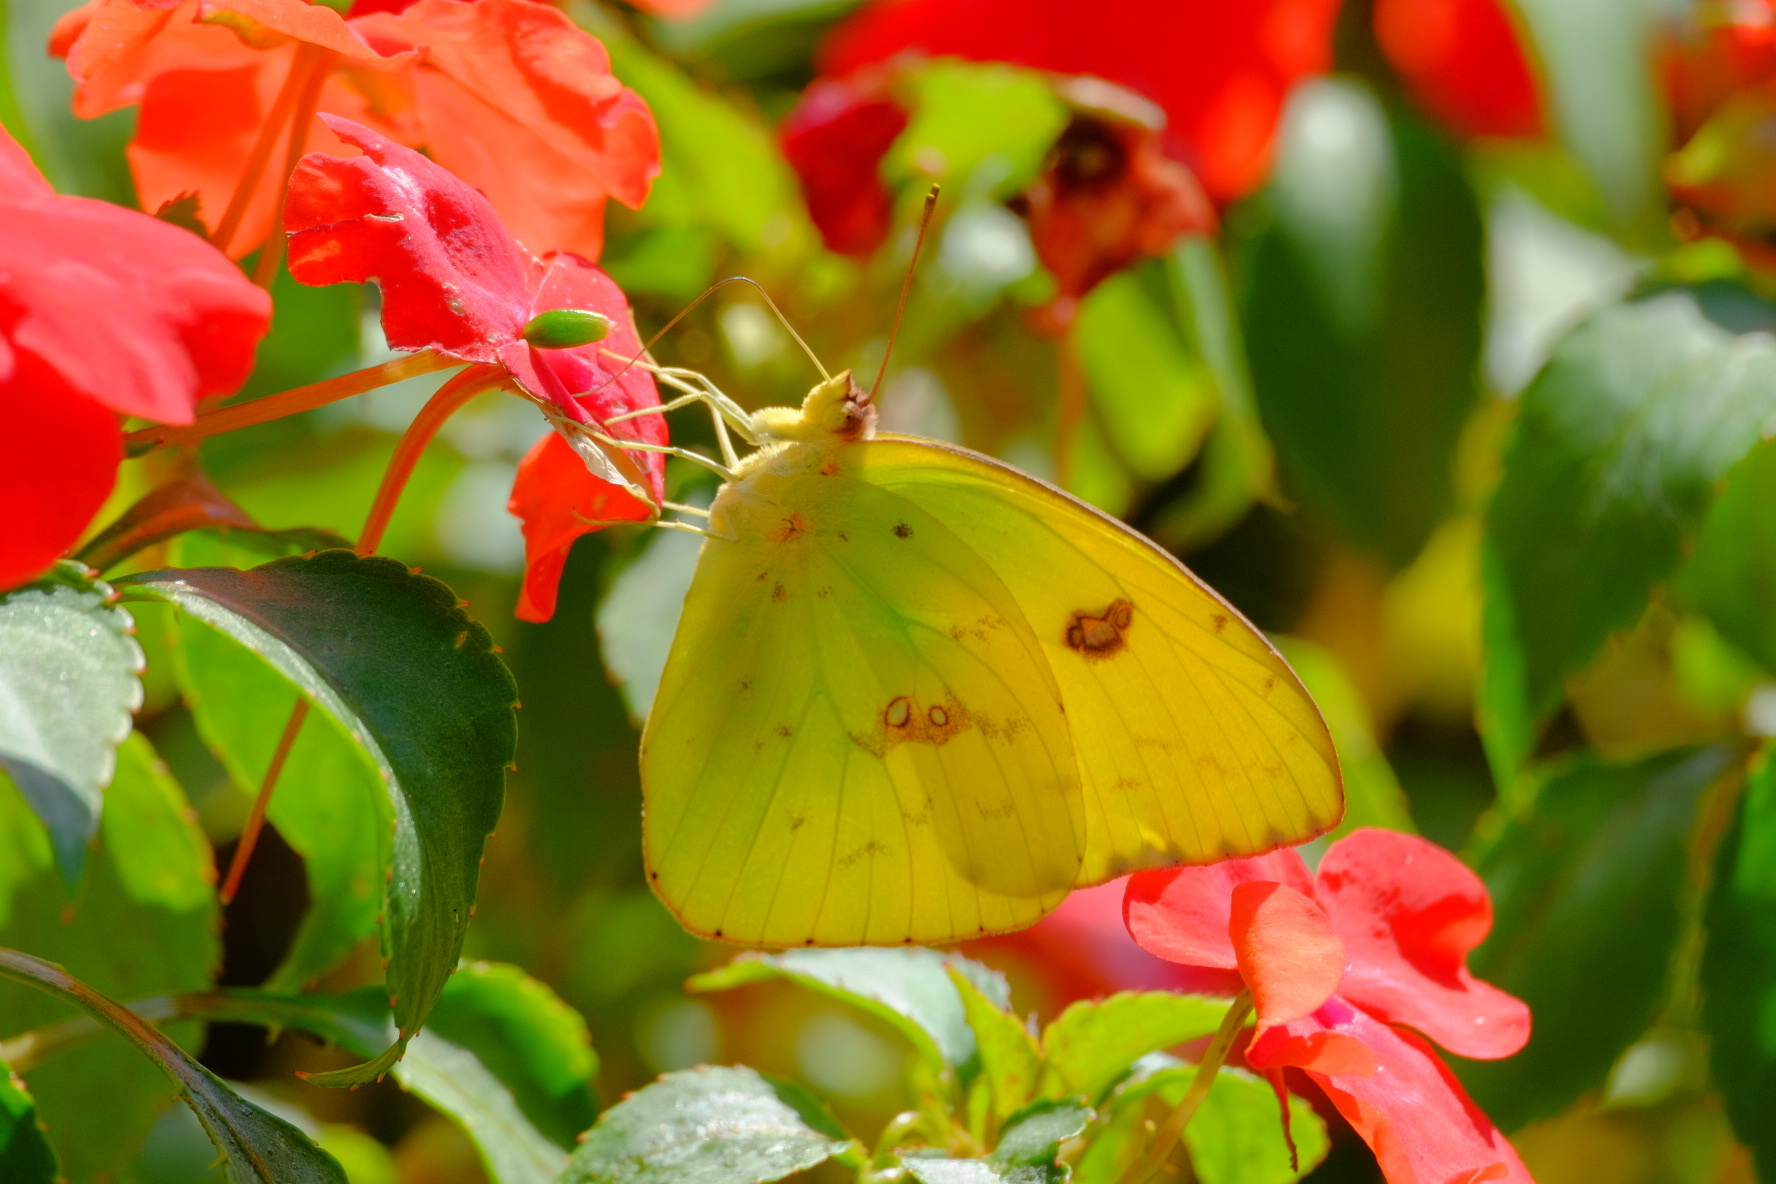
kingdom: Animalia
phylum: Arthropoda
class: Insecta
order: Lepidoptera
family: Pieridae
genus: Phoebis
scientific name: Phoebis sennae
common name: Cloudless sulphur
